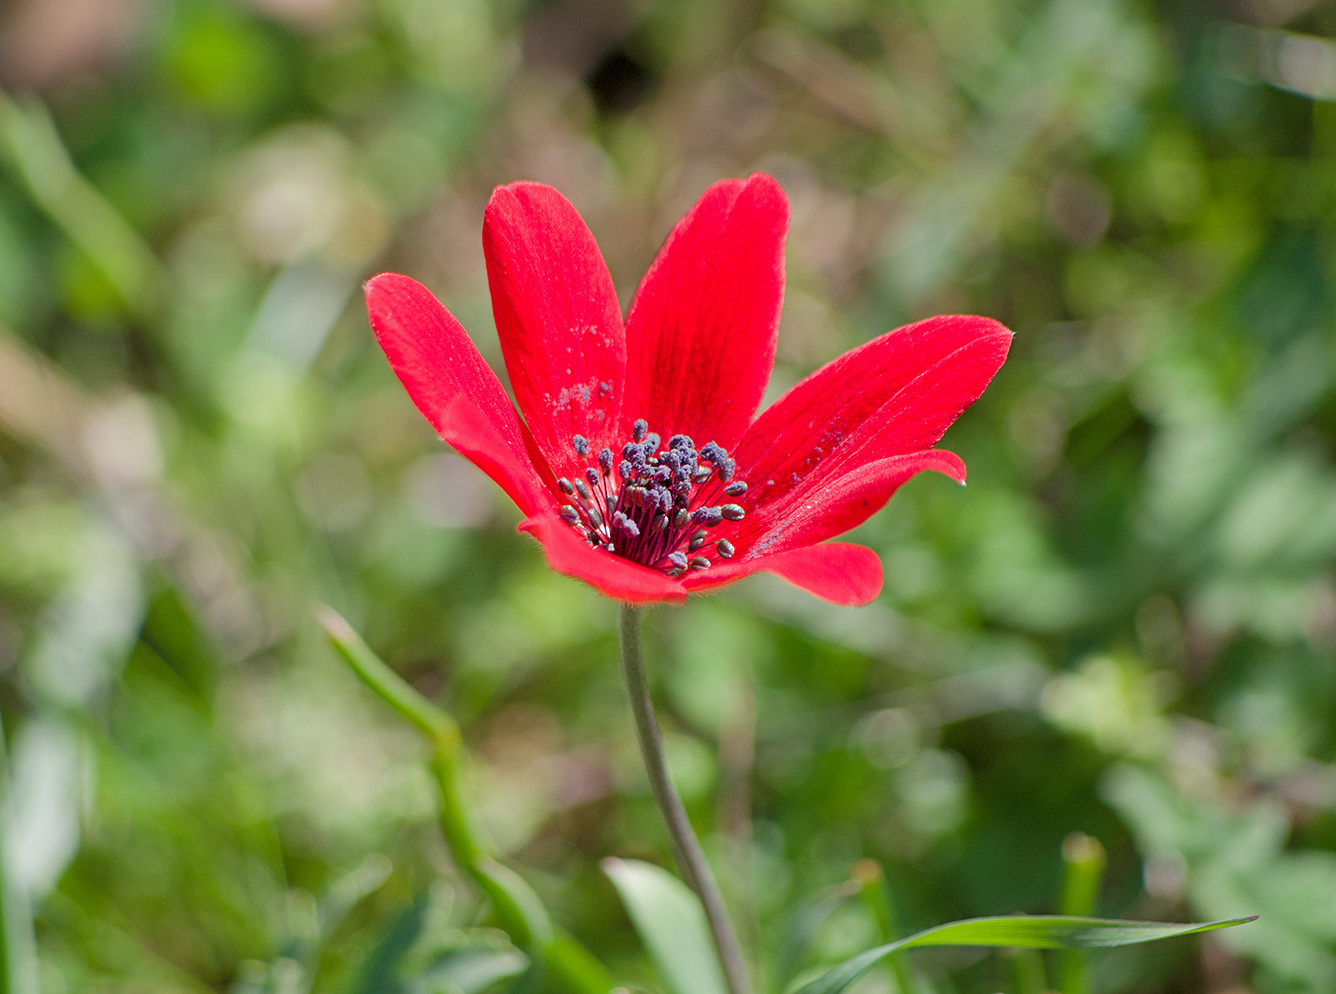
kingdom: Plantae
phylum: Tracheophyta
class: Magnoliopsida
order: Ranunculales
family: Ranunculaceae
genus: Anemone
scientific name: Anemone pavonina
